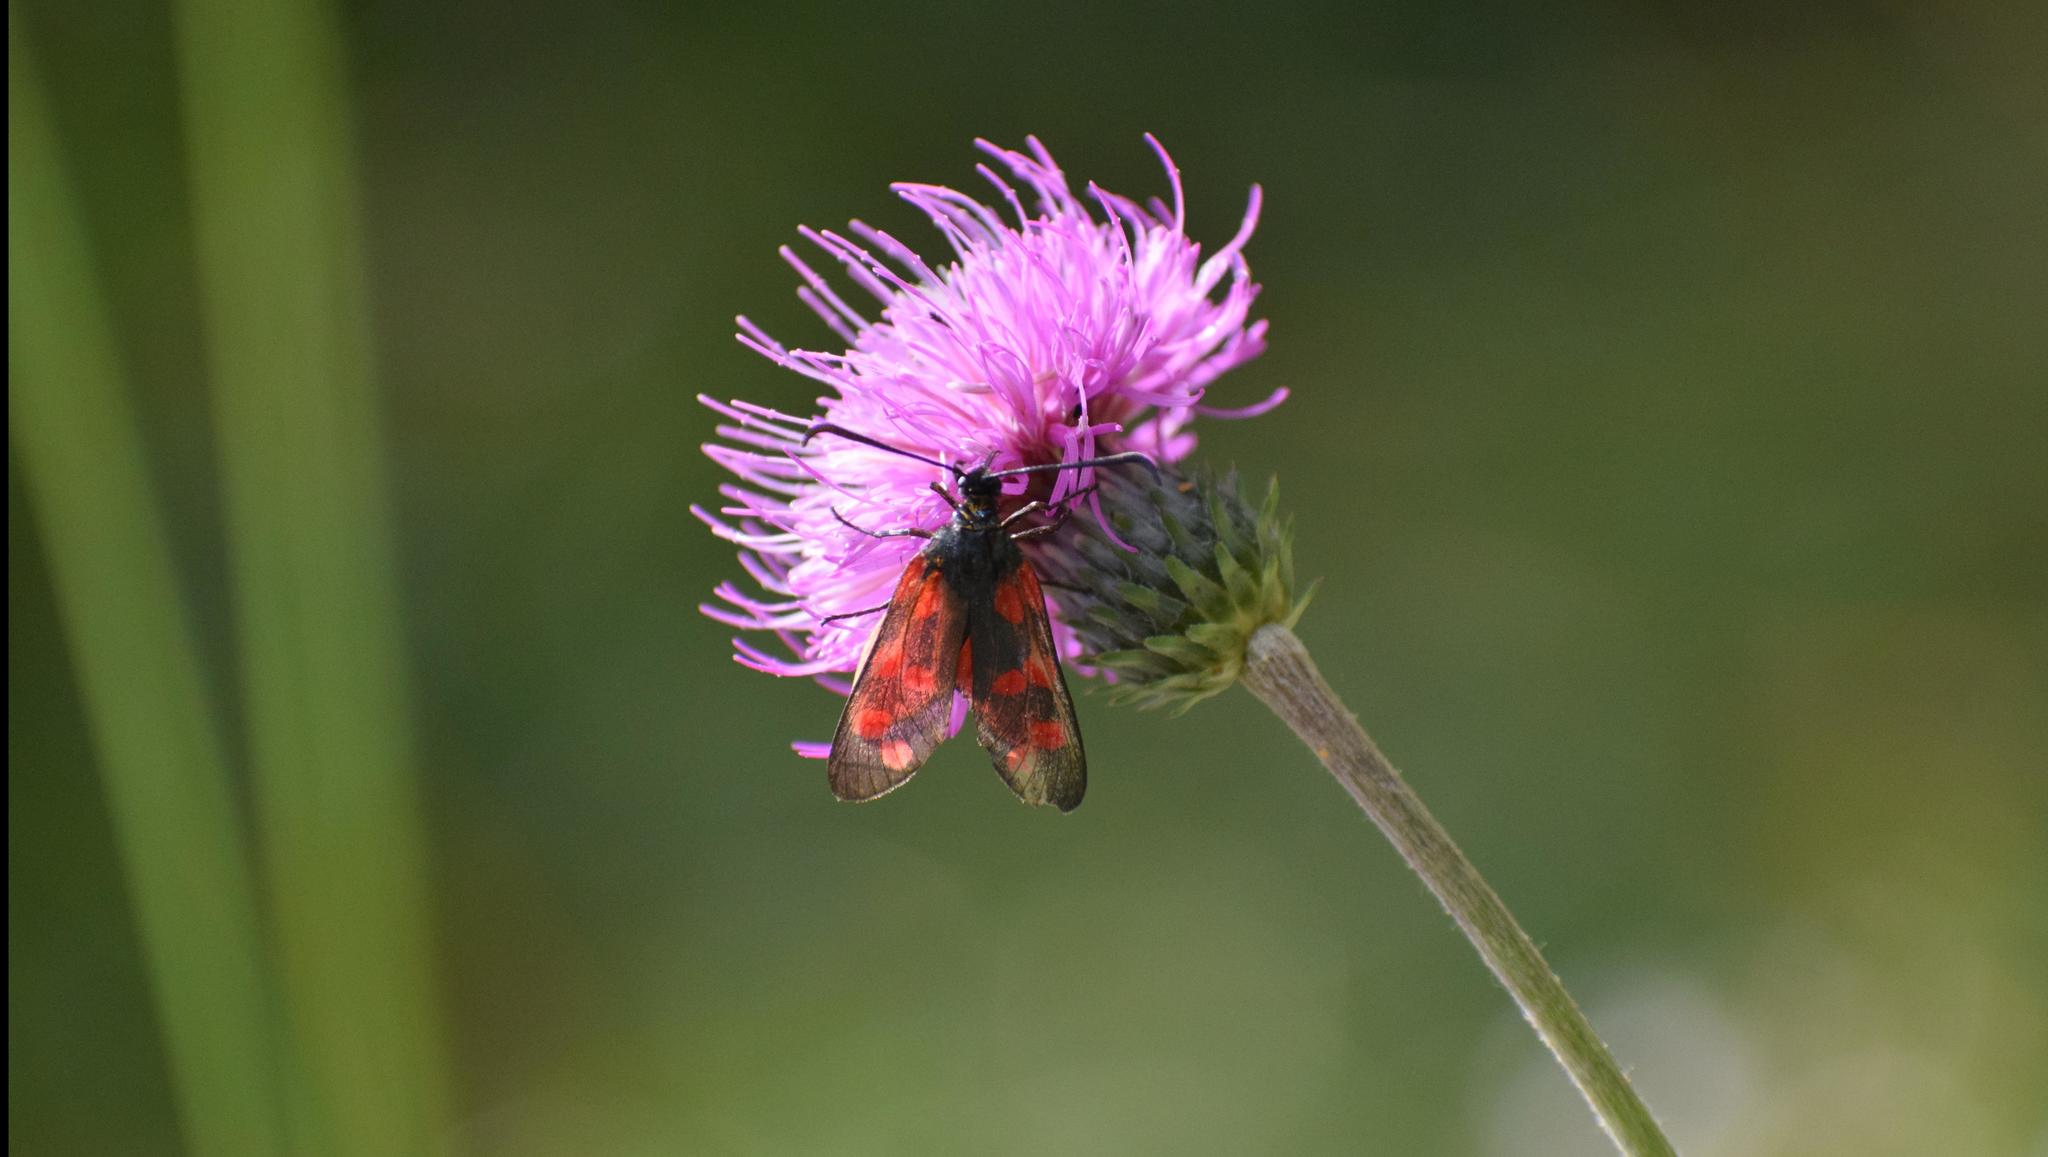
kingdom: Animalia
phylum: Arthropoda
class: Insecta
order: Lepidoptera
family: Zygaenidae
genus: Zygaena
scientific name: Zygaena filipendulae
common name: Six-spot burnet
